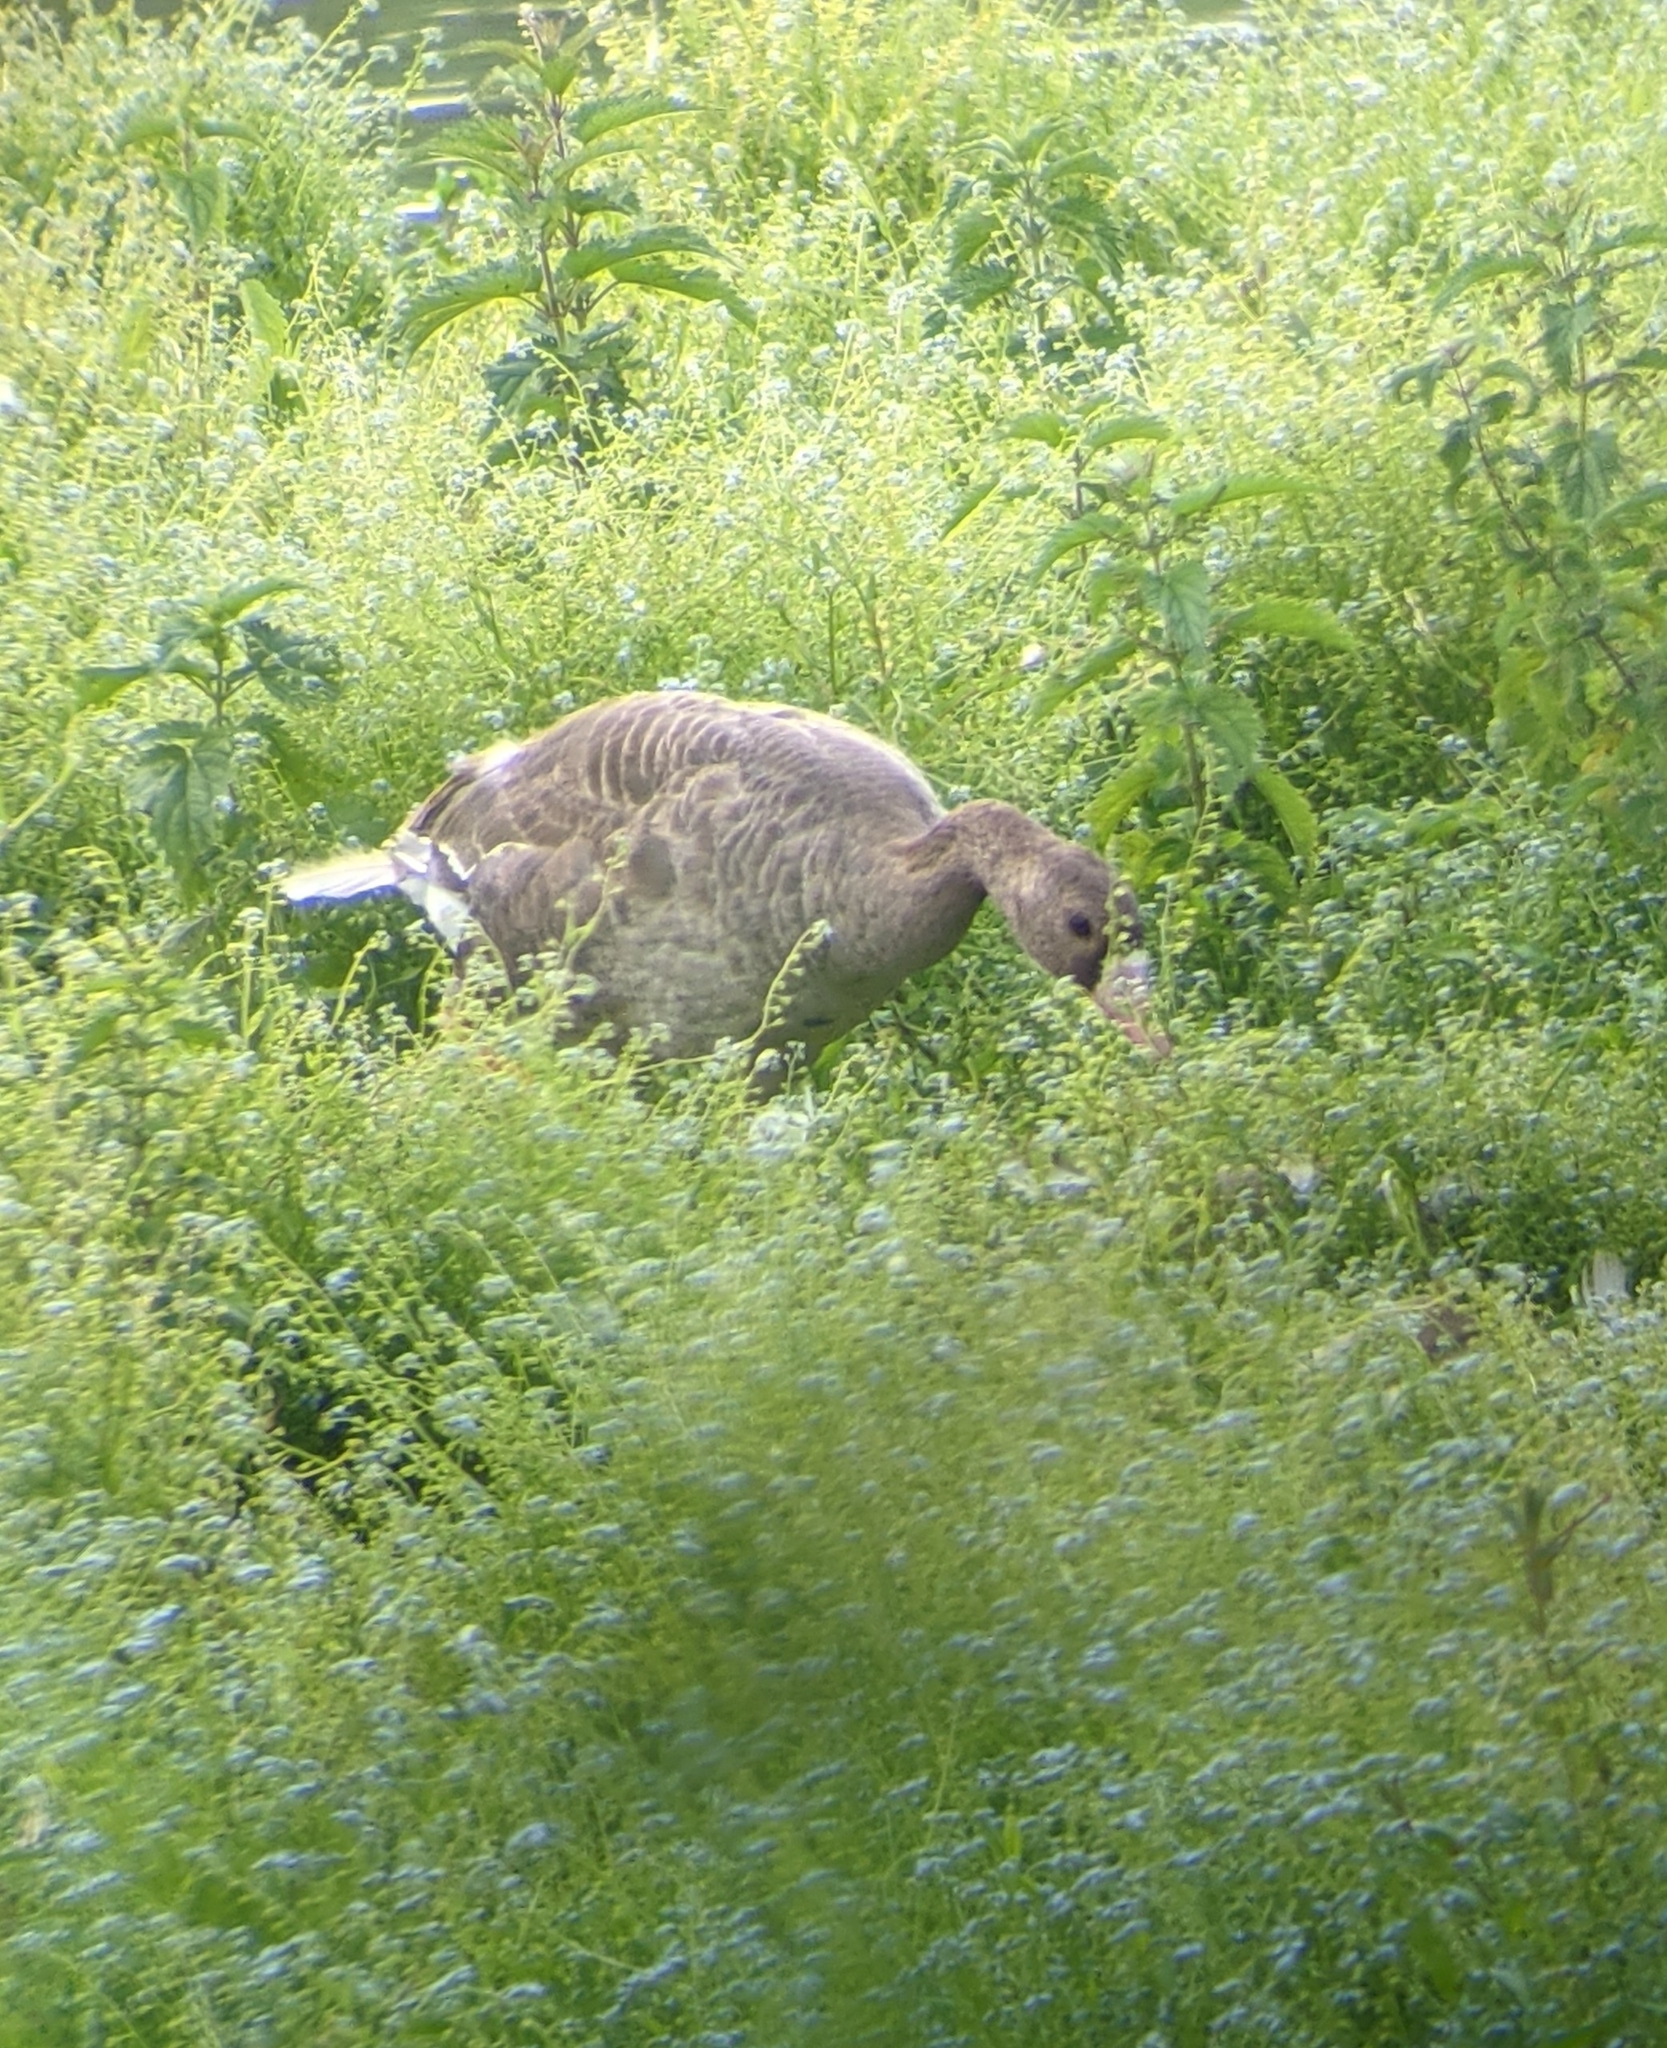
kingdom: Animalia
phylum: Chordata
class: Aves
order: Anseriformes
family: Anatidae
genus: Anser
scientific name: Anser albifrons
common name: Greater white-fronted goose
